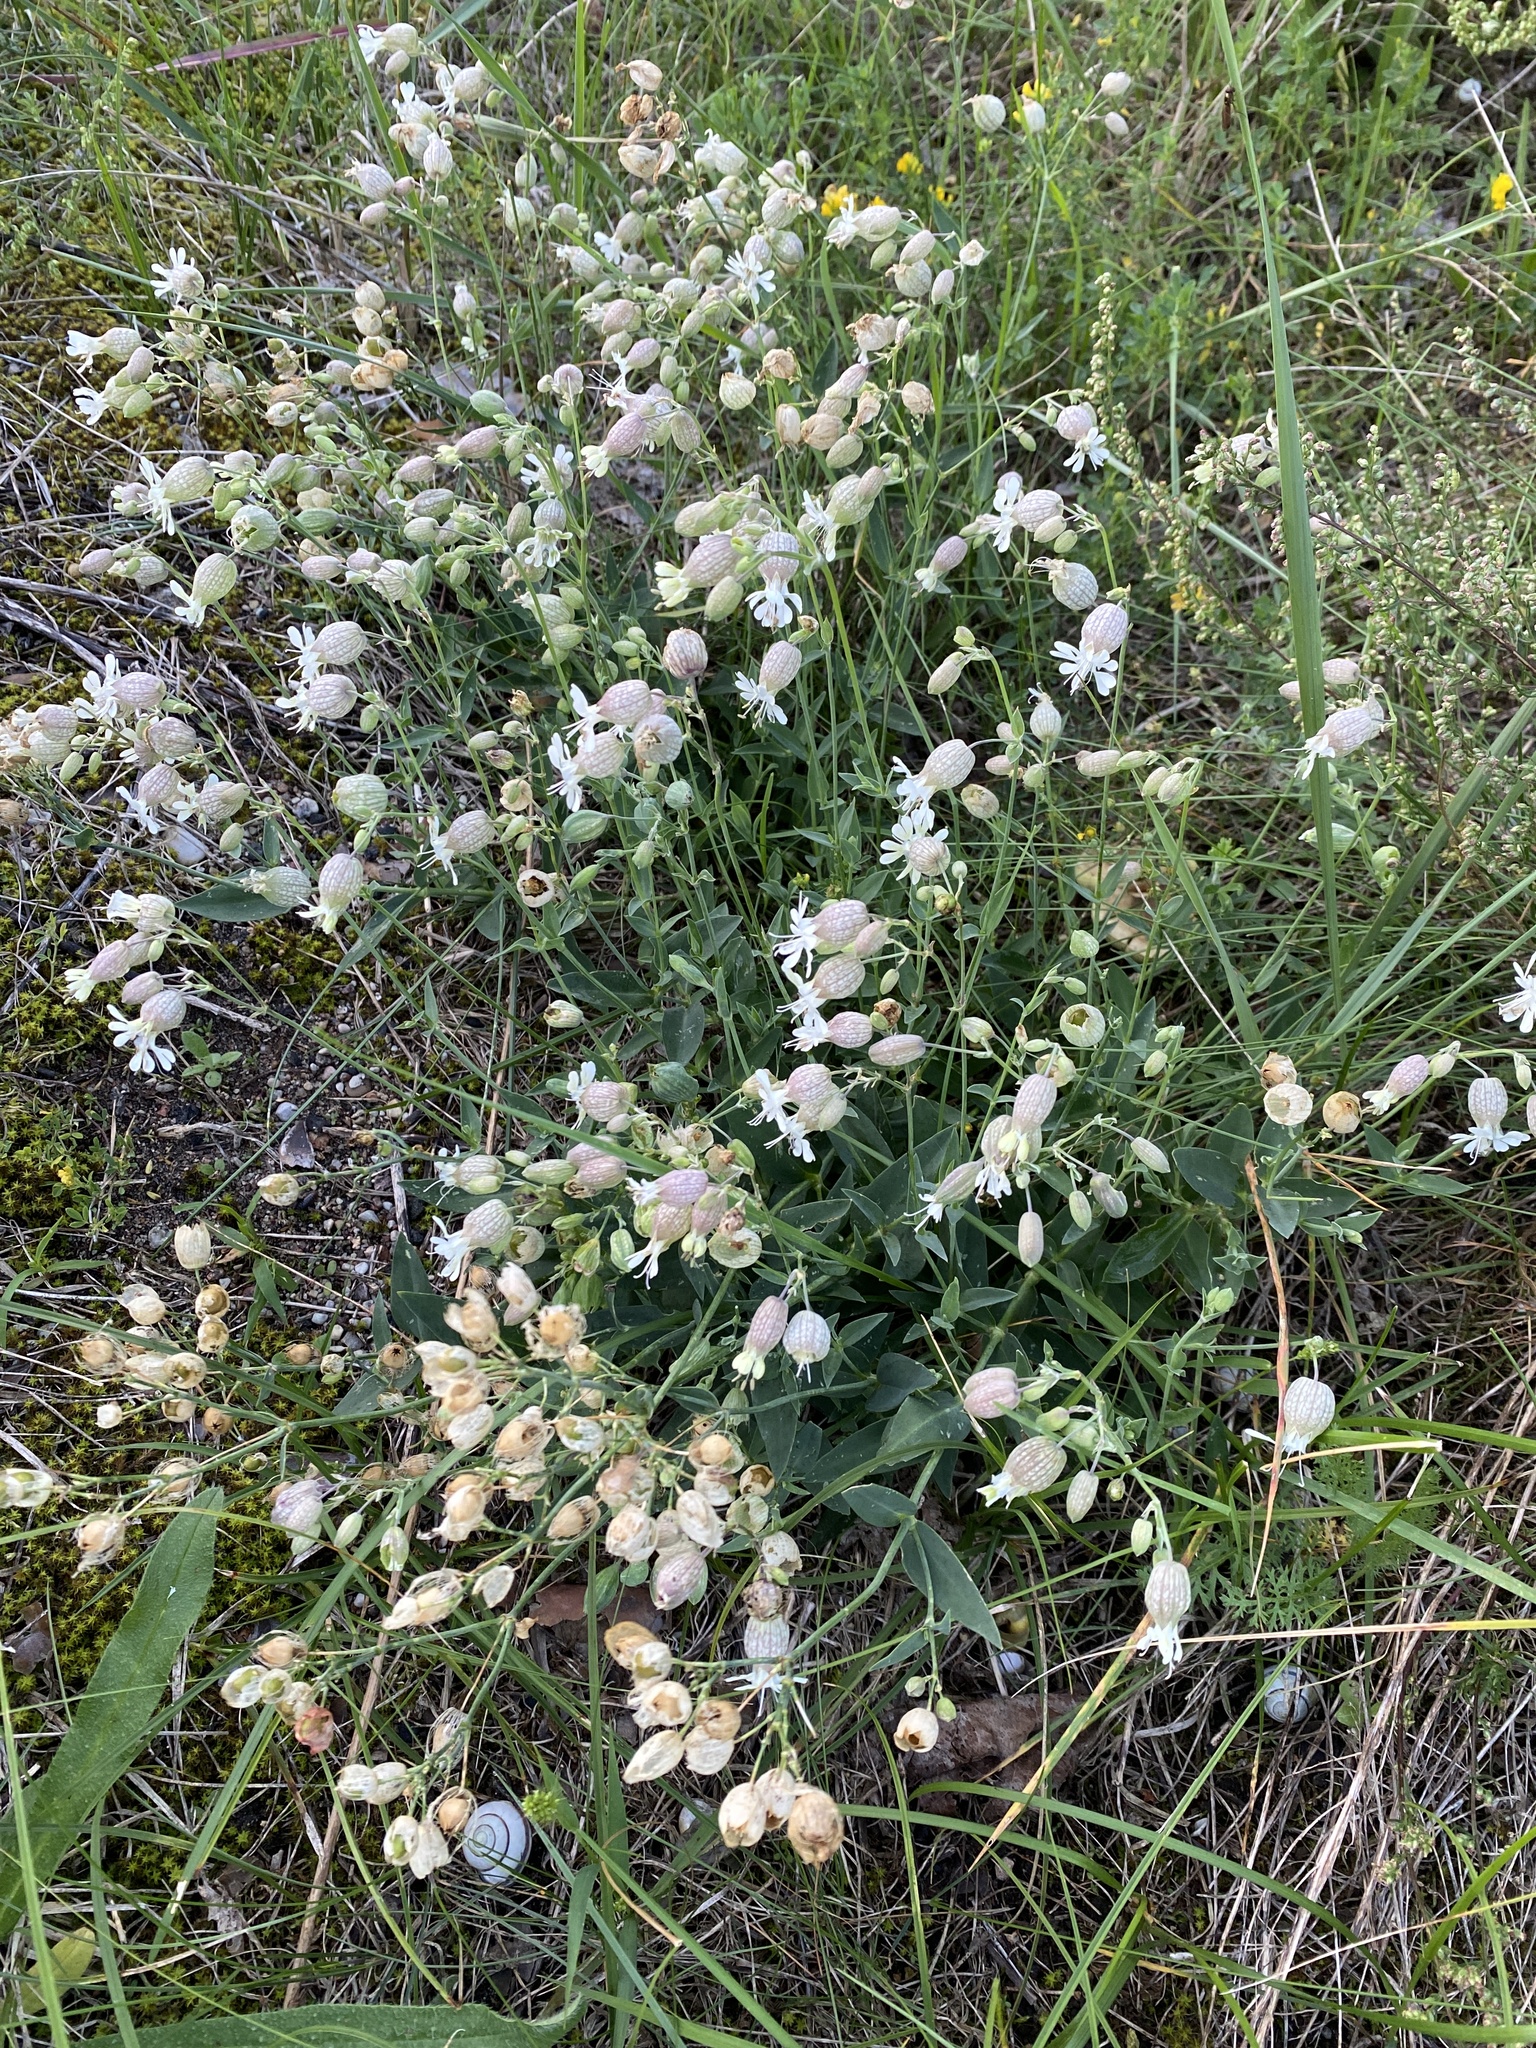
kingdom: Plantae
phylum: Tracheophyta
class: Magnoliopsida
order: Caryophyllales
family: Caryophyllaceae
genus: Silene
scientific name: Silene vulgaris
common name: Bladder campion
